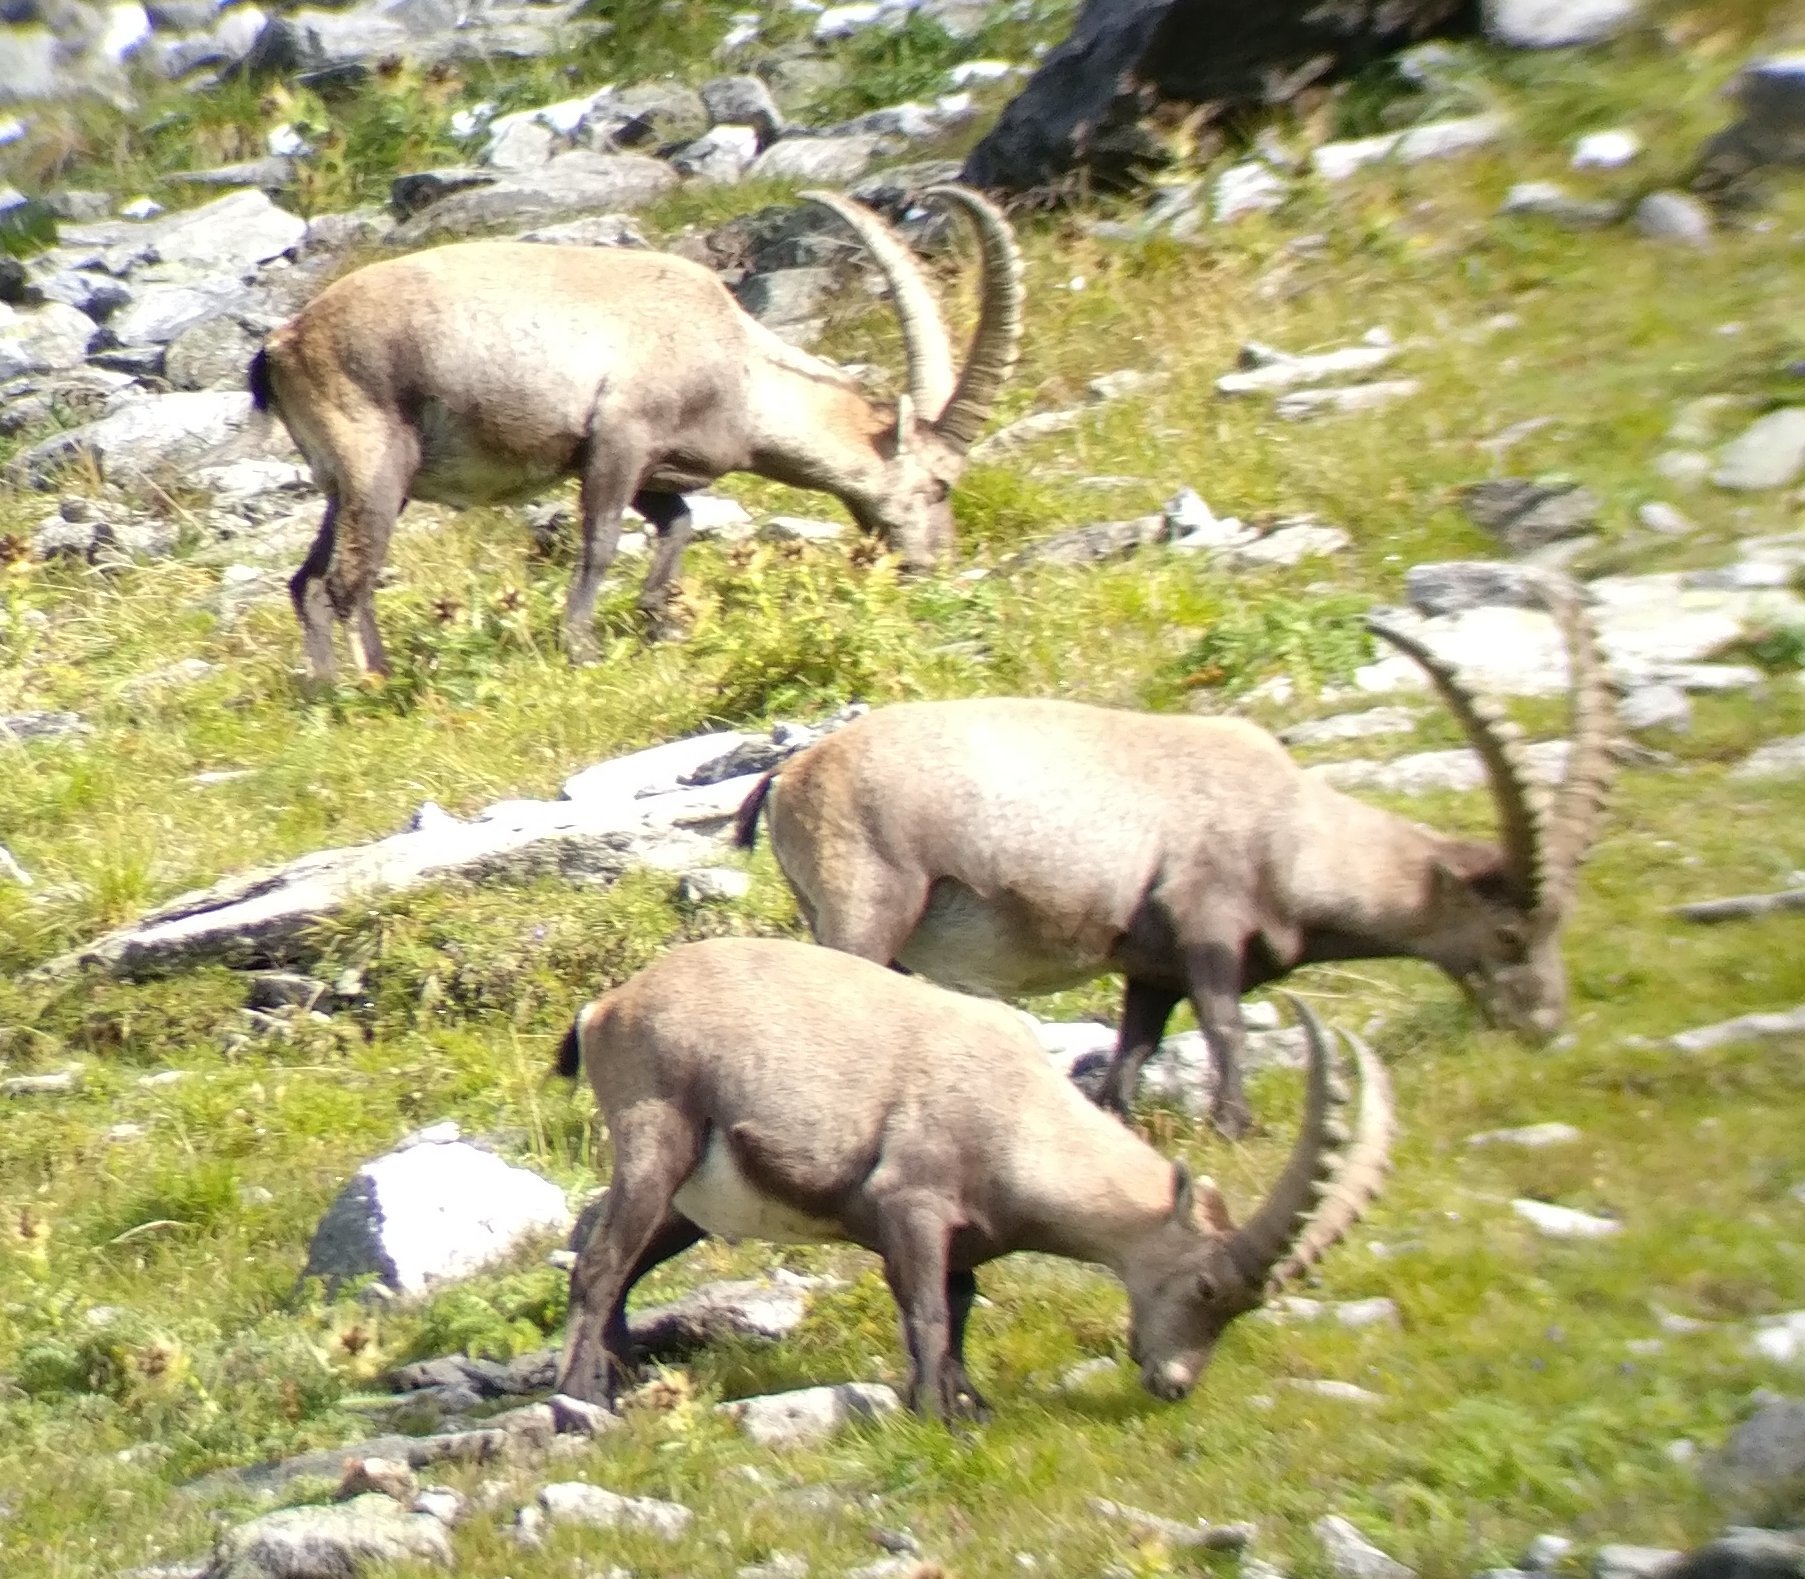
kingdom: Animalia
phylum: Chordata
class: Mammalia
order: Artiodactyla
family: Bovidae
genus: Capra
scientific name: Capra ibex
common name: Alpine ibex
